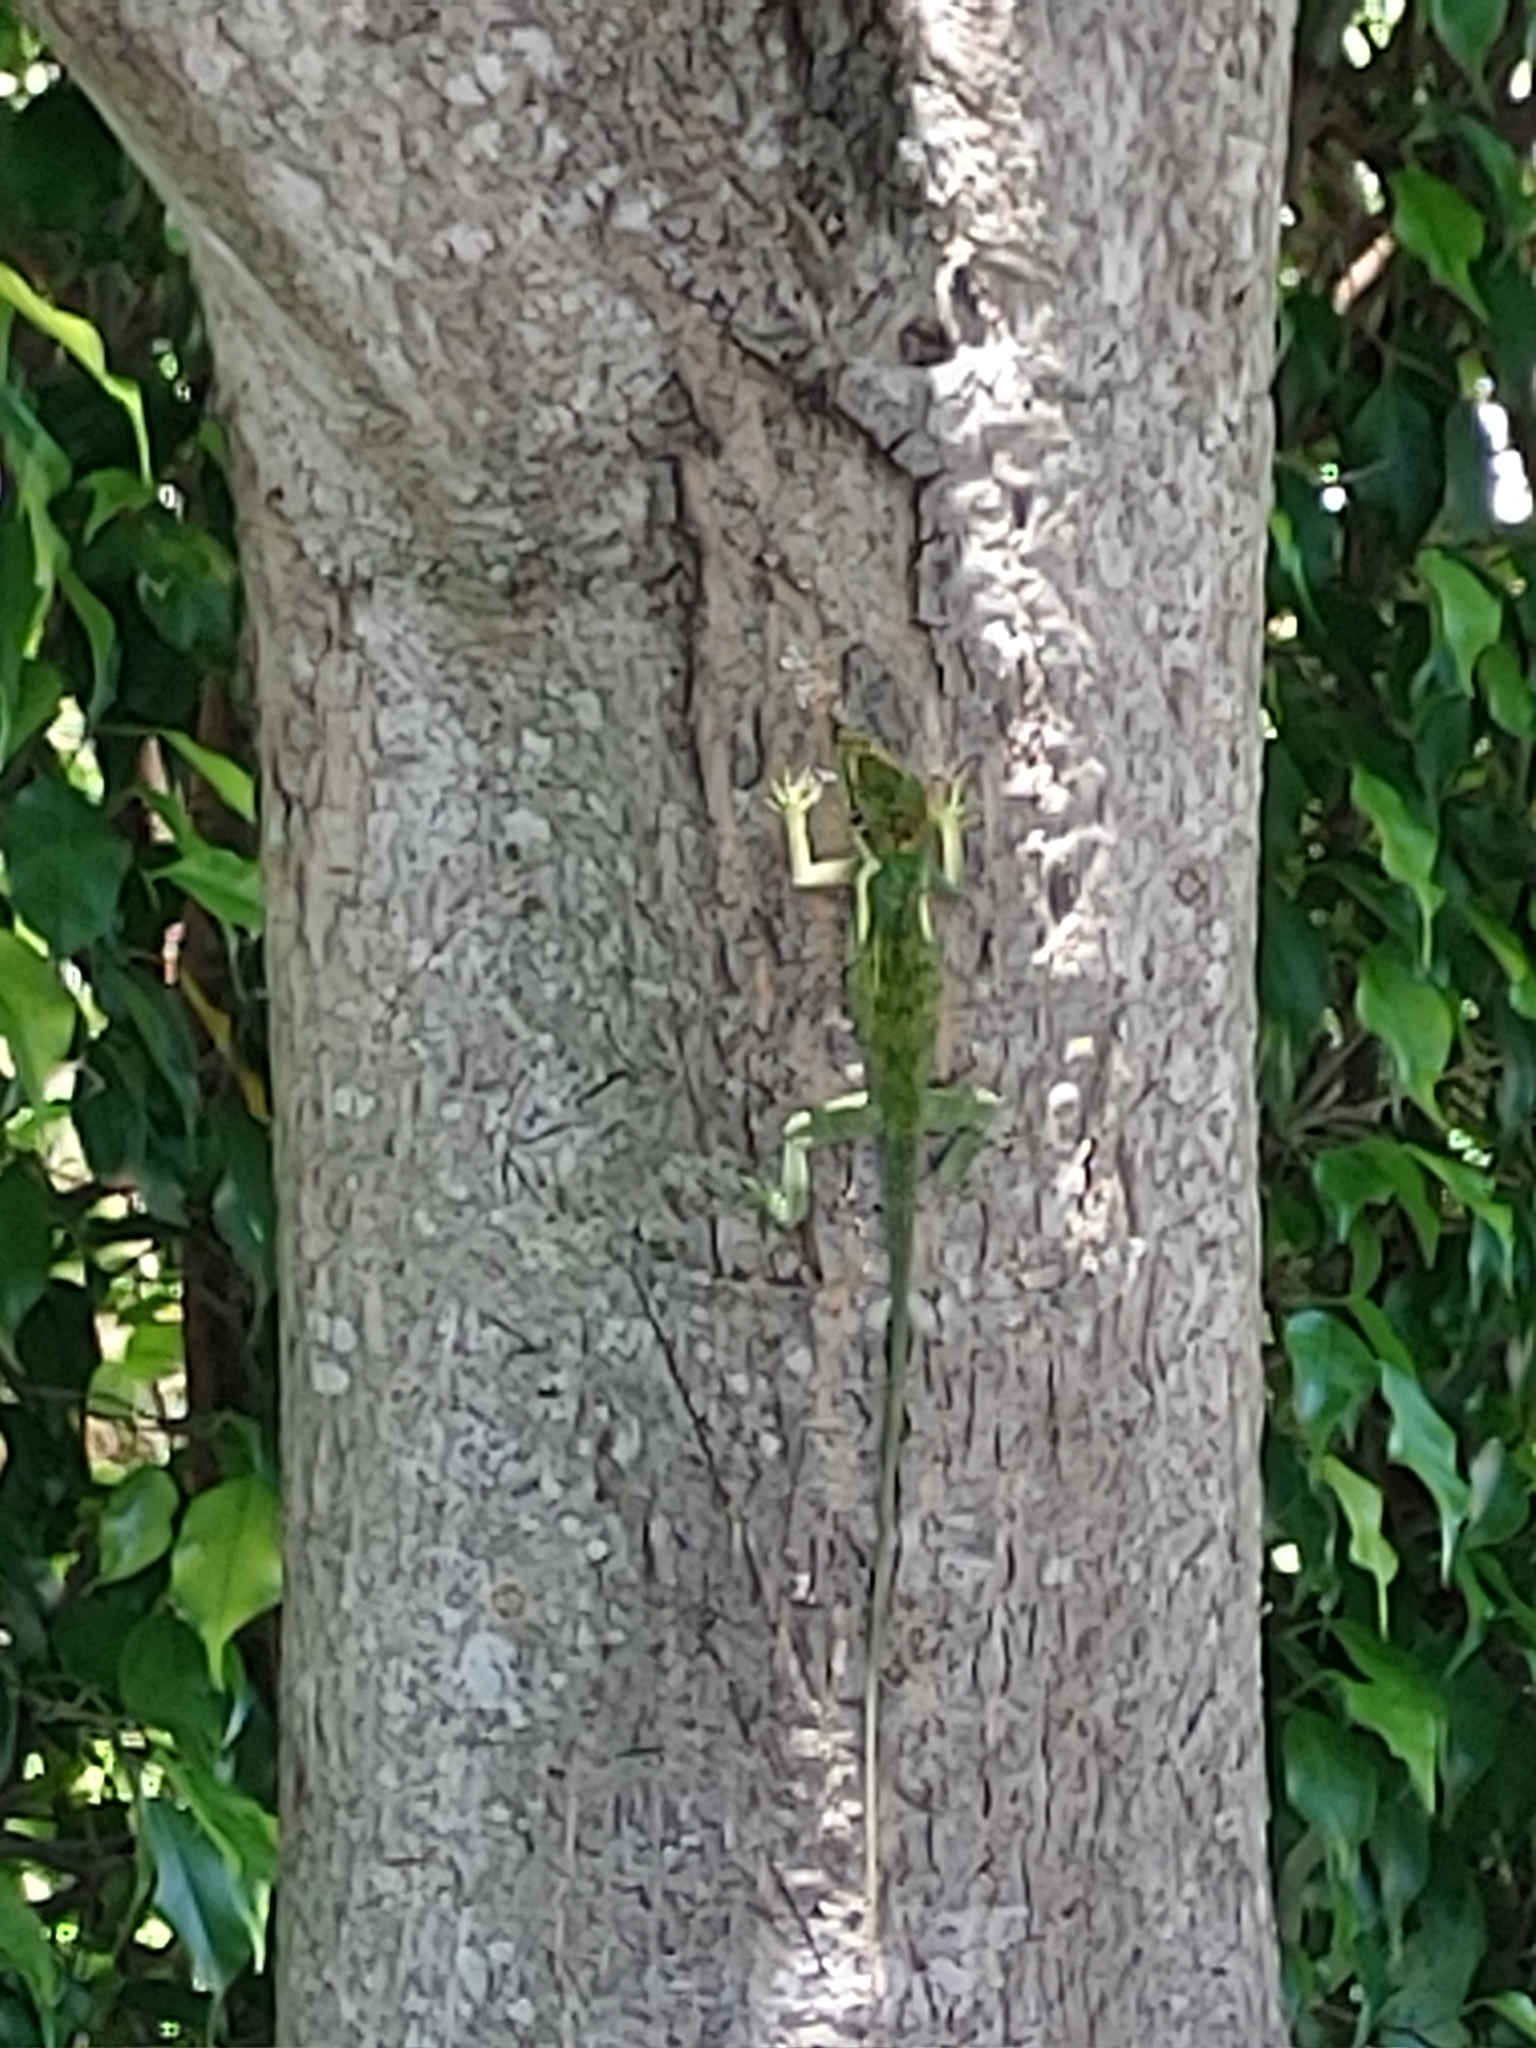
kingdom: Animalia
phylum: Chordata
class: Squamata
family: Dactyloidae
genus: Anolis
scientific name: Anolis equestris
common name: Knight anole
